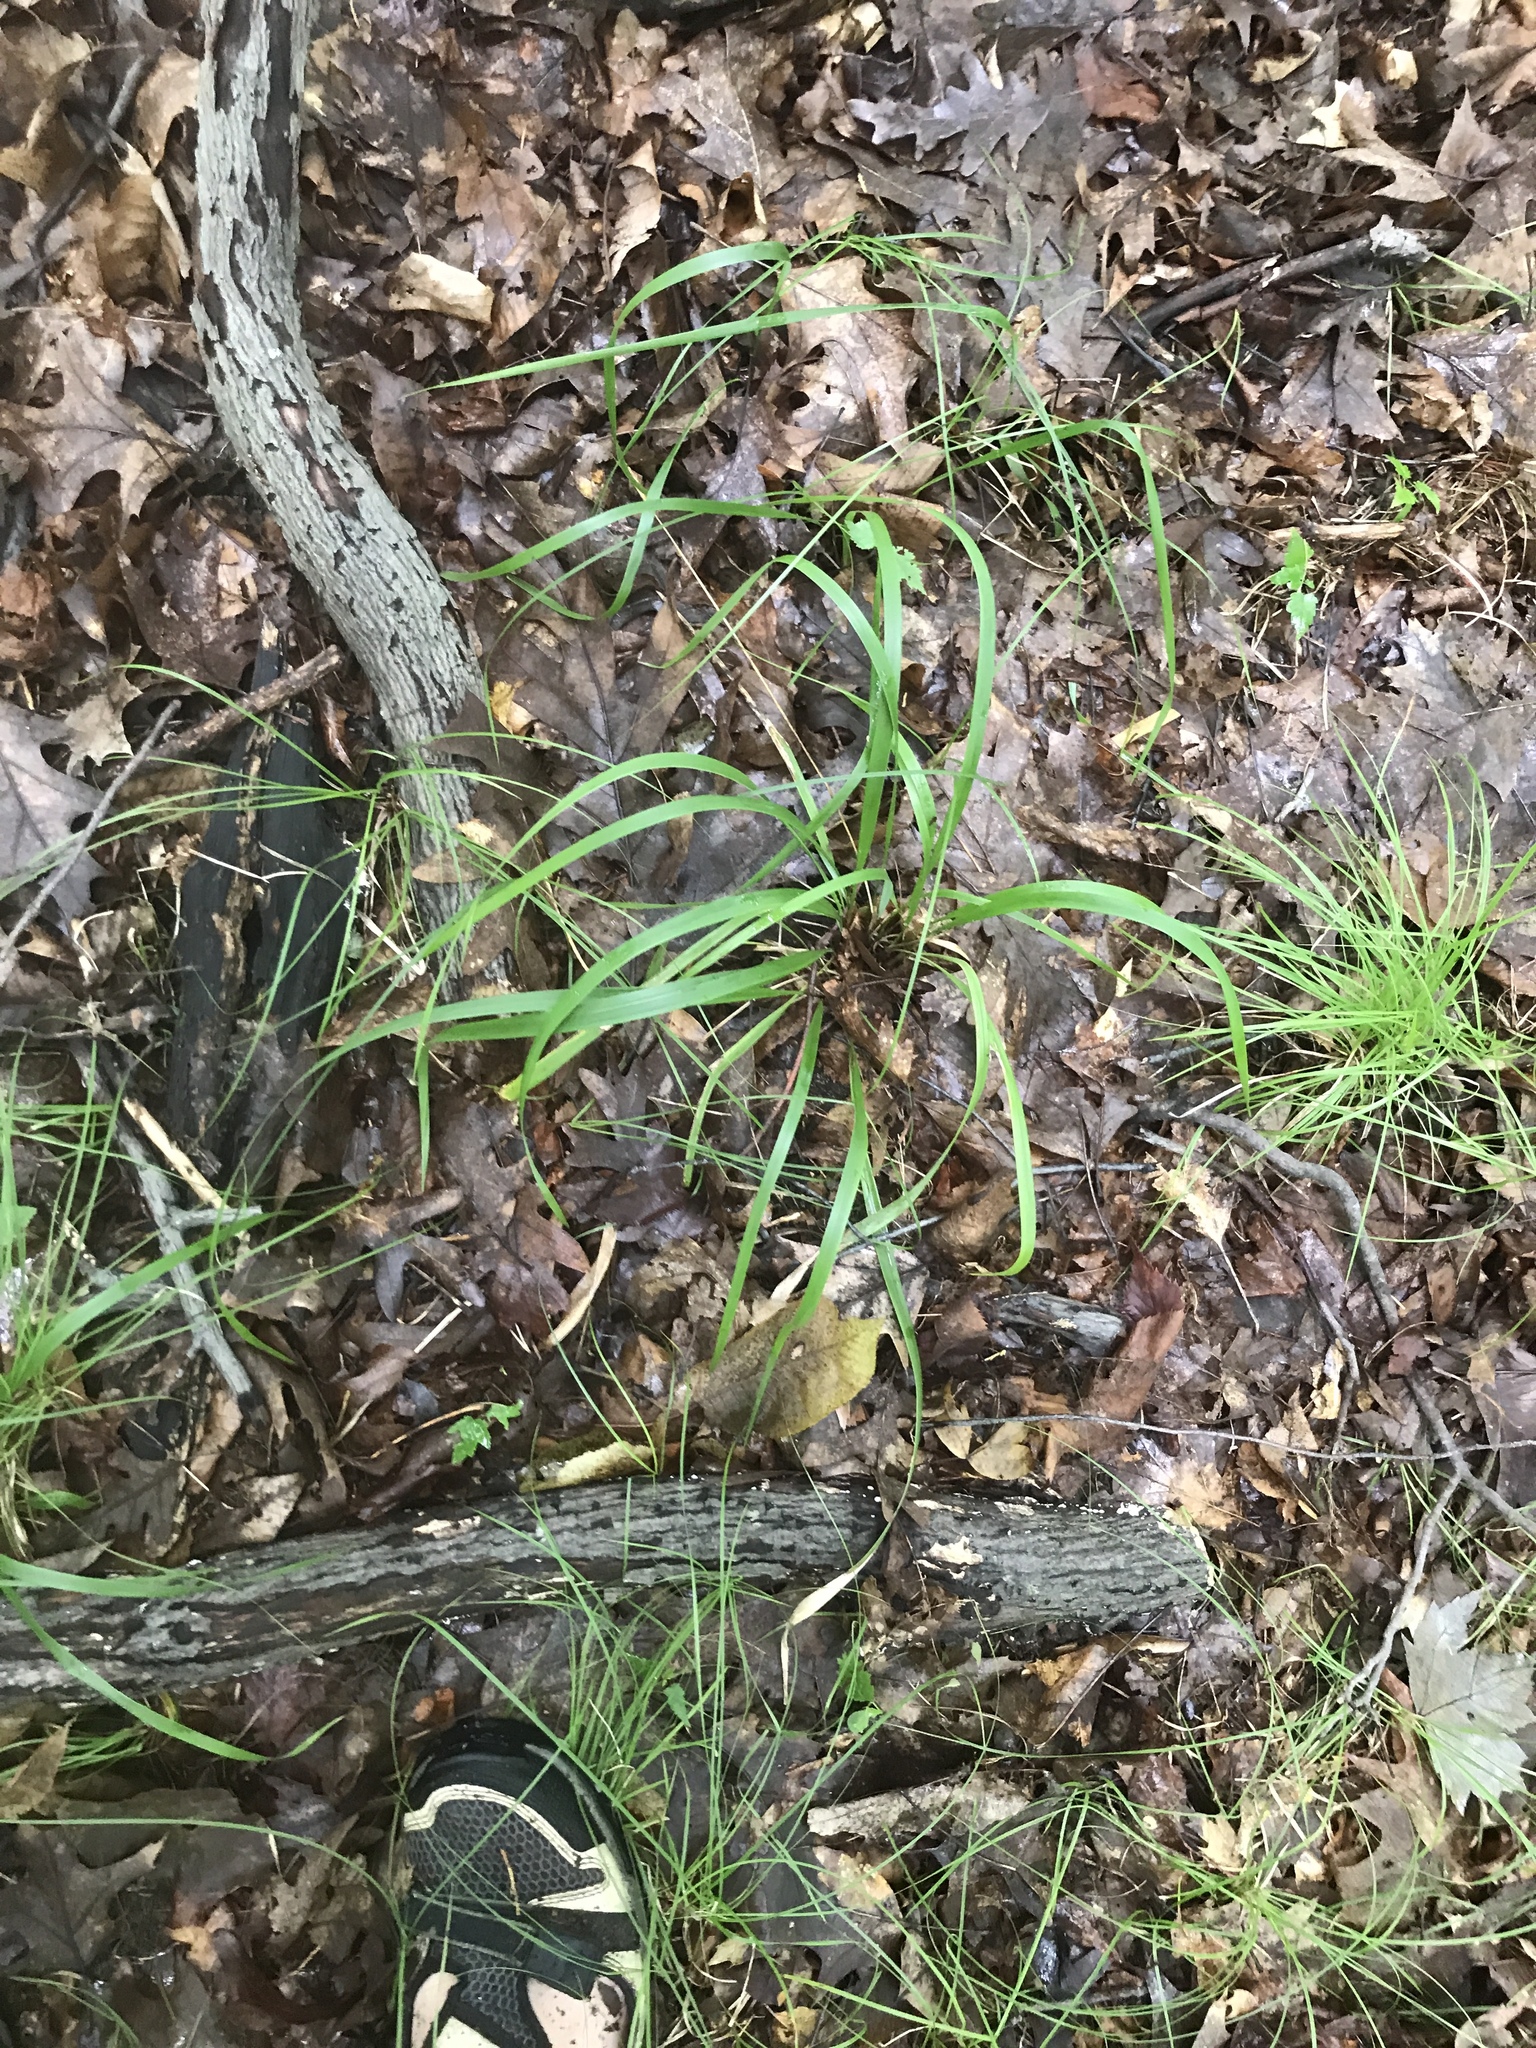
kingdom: Plantae
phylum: Tracheophyta
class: Liliopsida
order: Poales
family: Poaceae
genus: Oryzopsis
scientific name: Oryzopsis asperifolia
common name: Rough-leaved mountain rice
